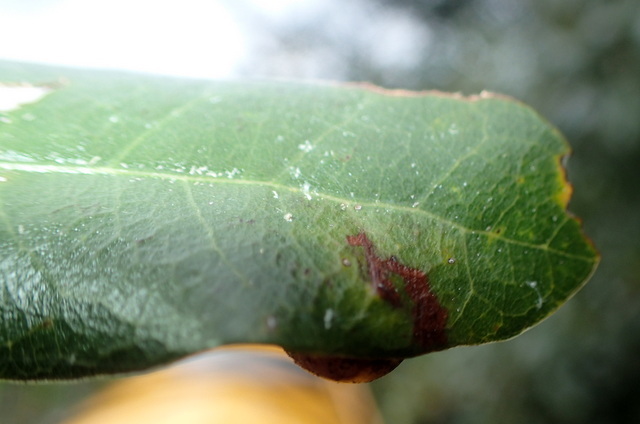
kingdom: Animalia
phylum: Arthropoda
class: Insecta
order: Hymenoptera
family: Cynipidae
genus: Belonocnema
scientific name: Belonocnema treatae
